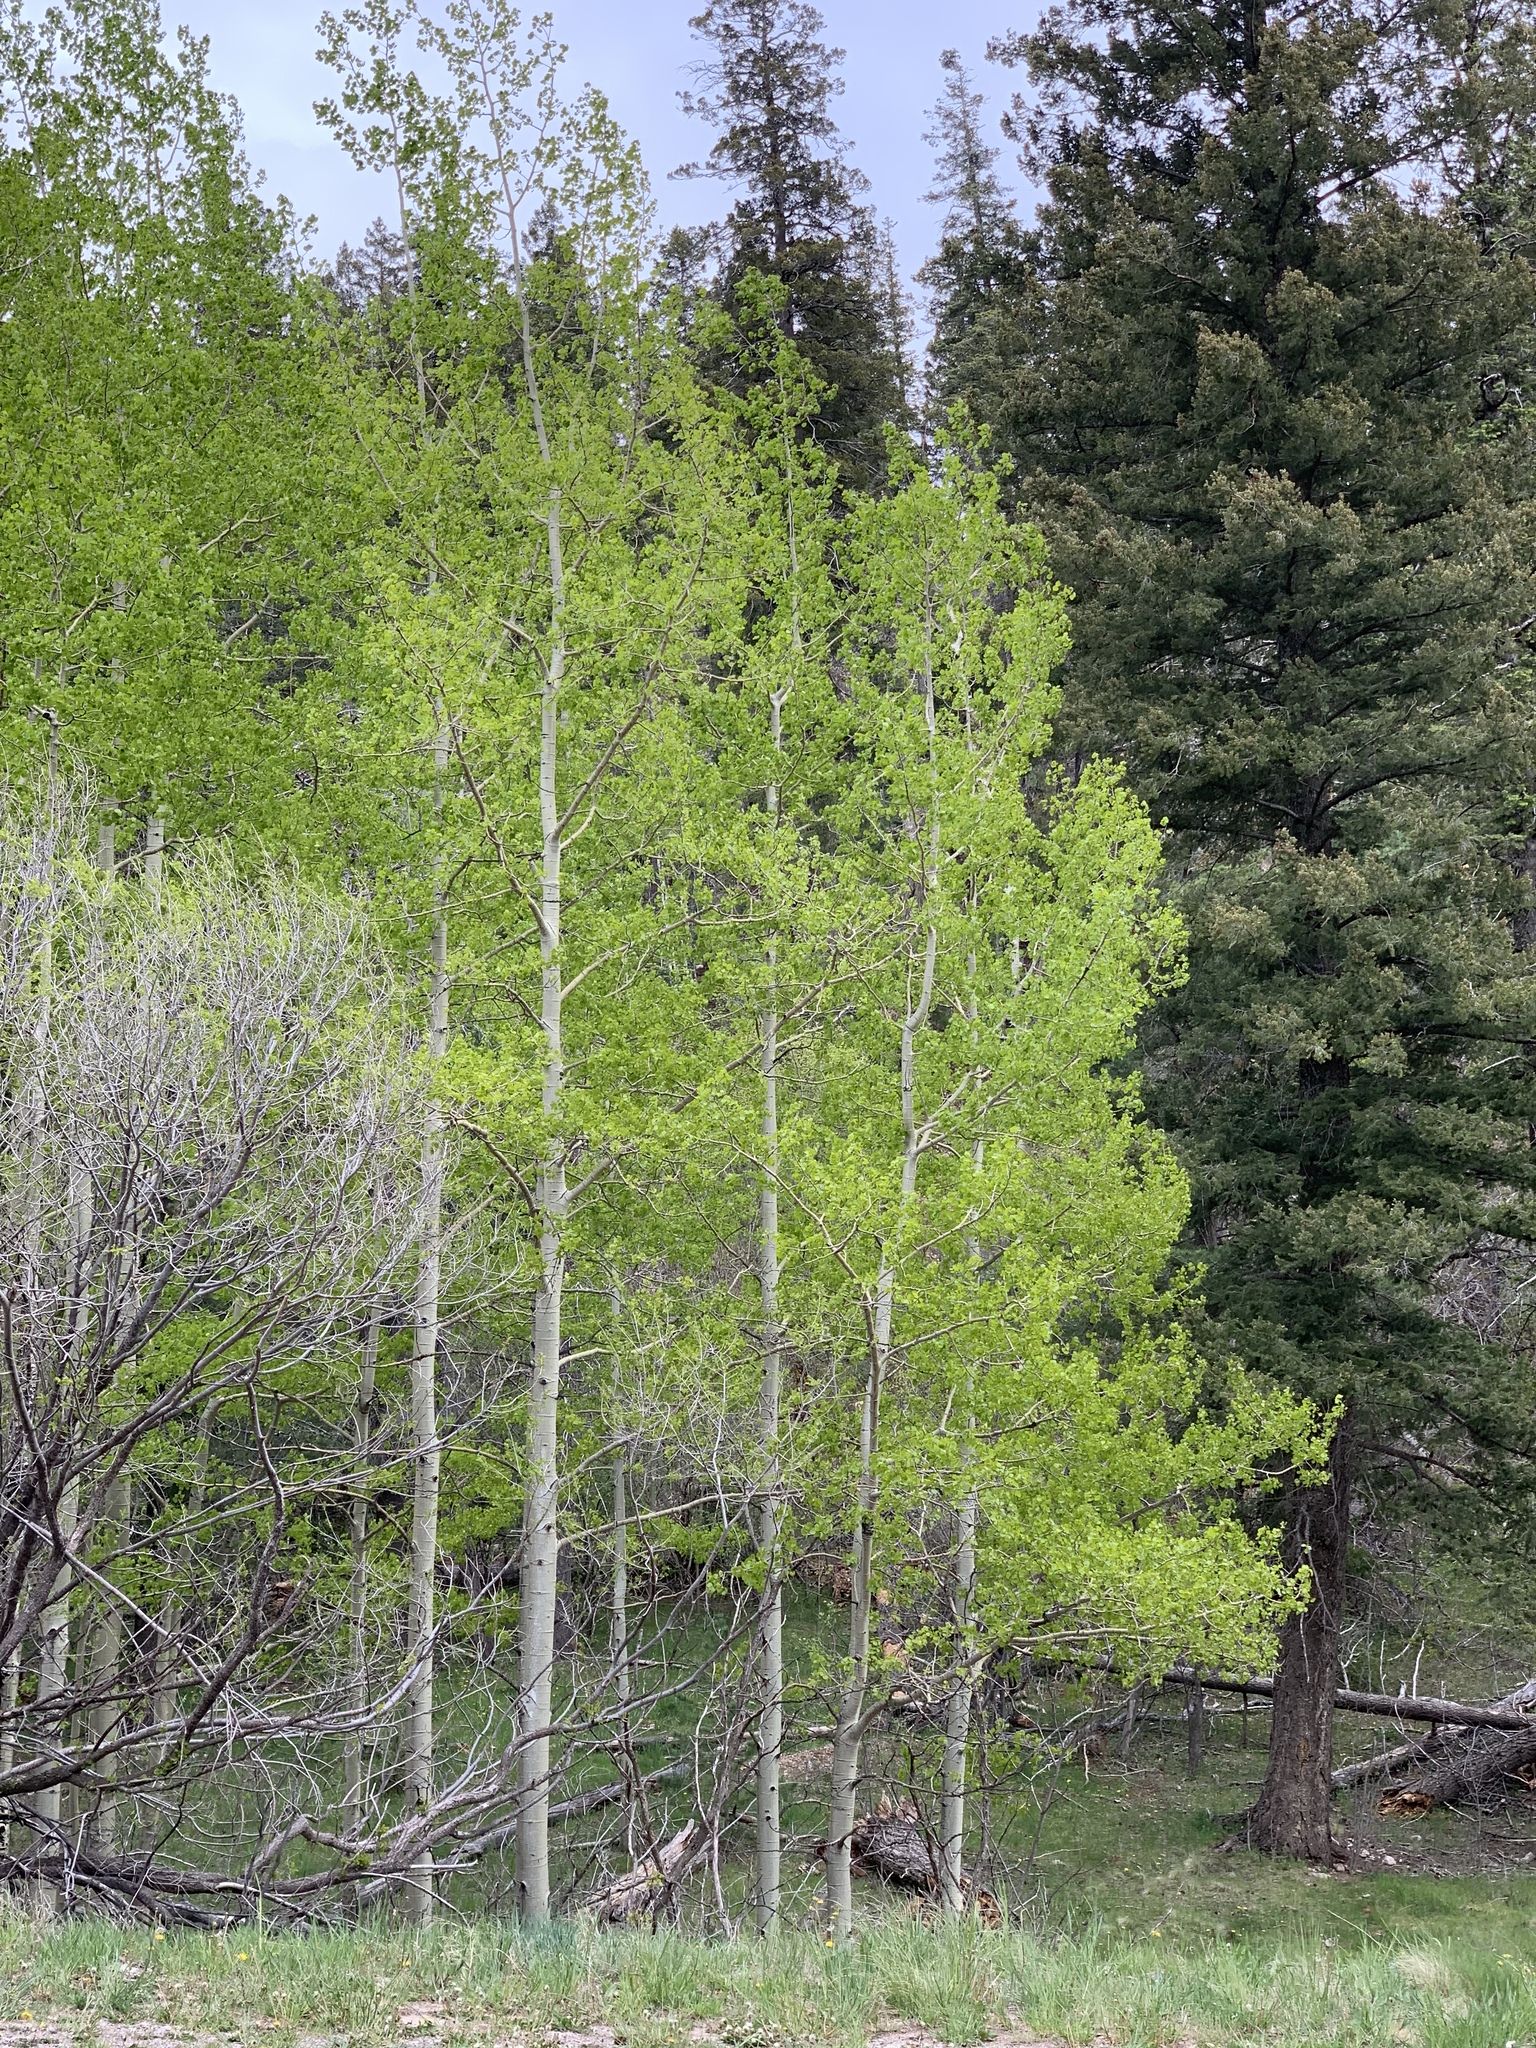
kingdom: Plantae
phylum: Tracheophyta
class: Magnoliopsida
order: Malpighiales
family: Salicaceae
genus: Populus
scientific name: Populus tremuloides
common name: Quaking aspen
